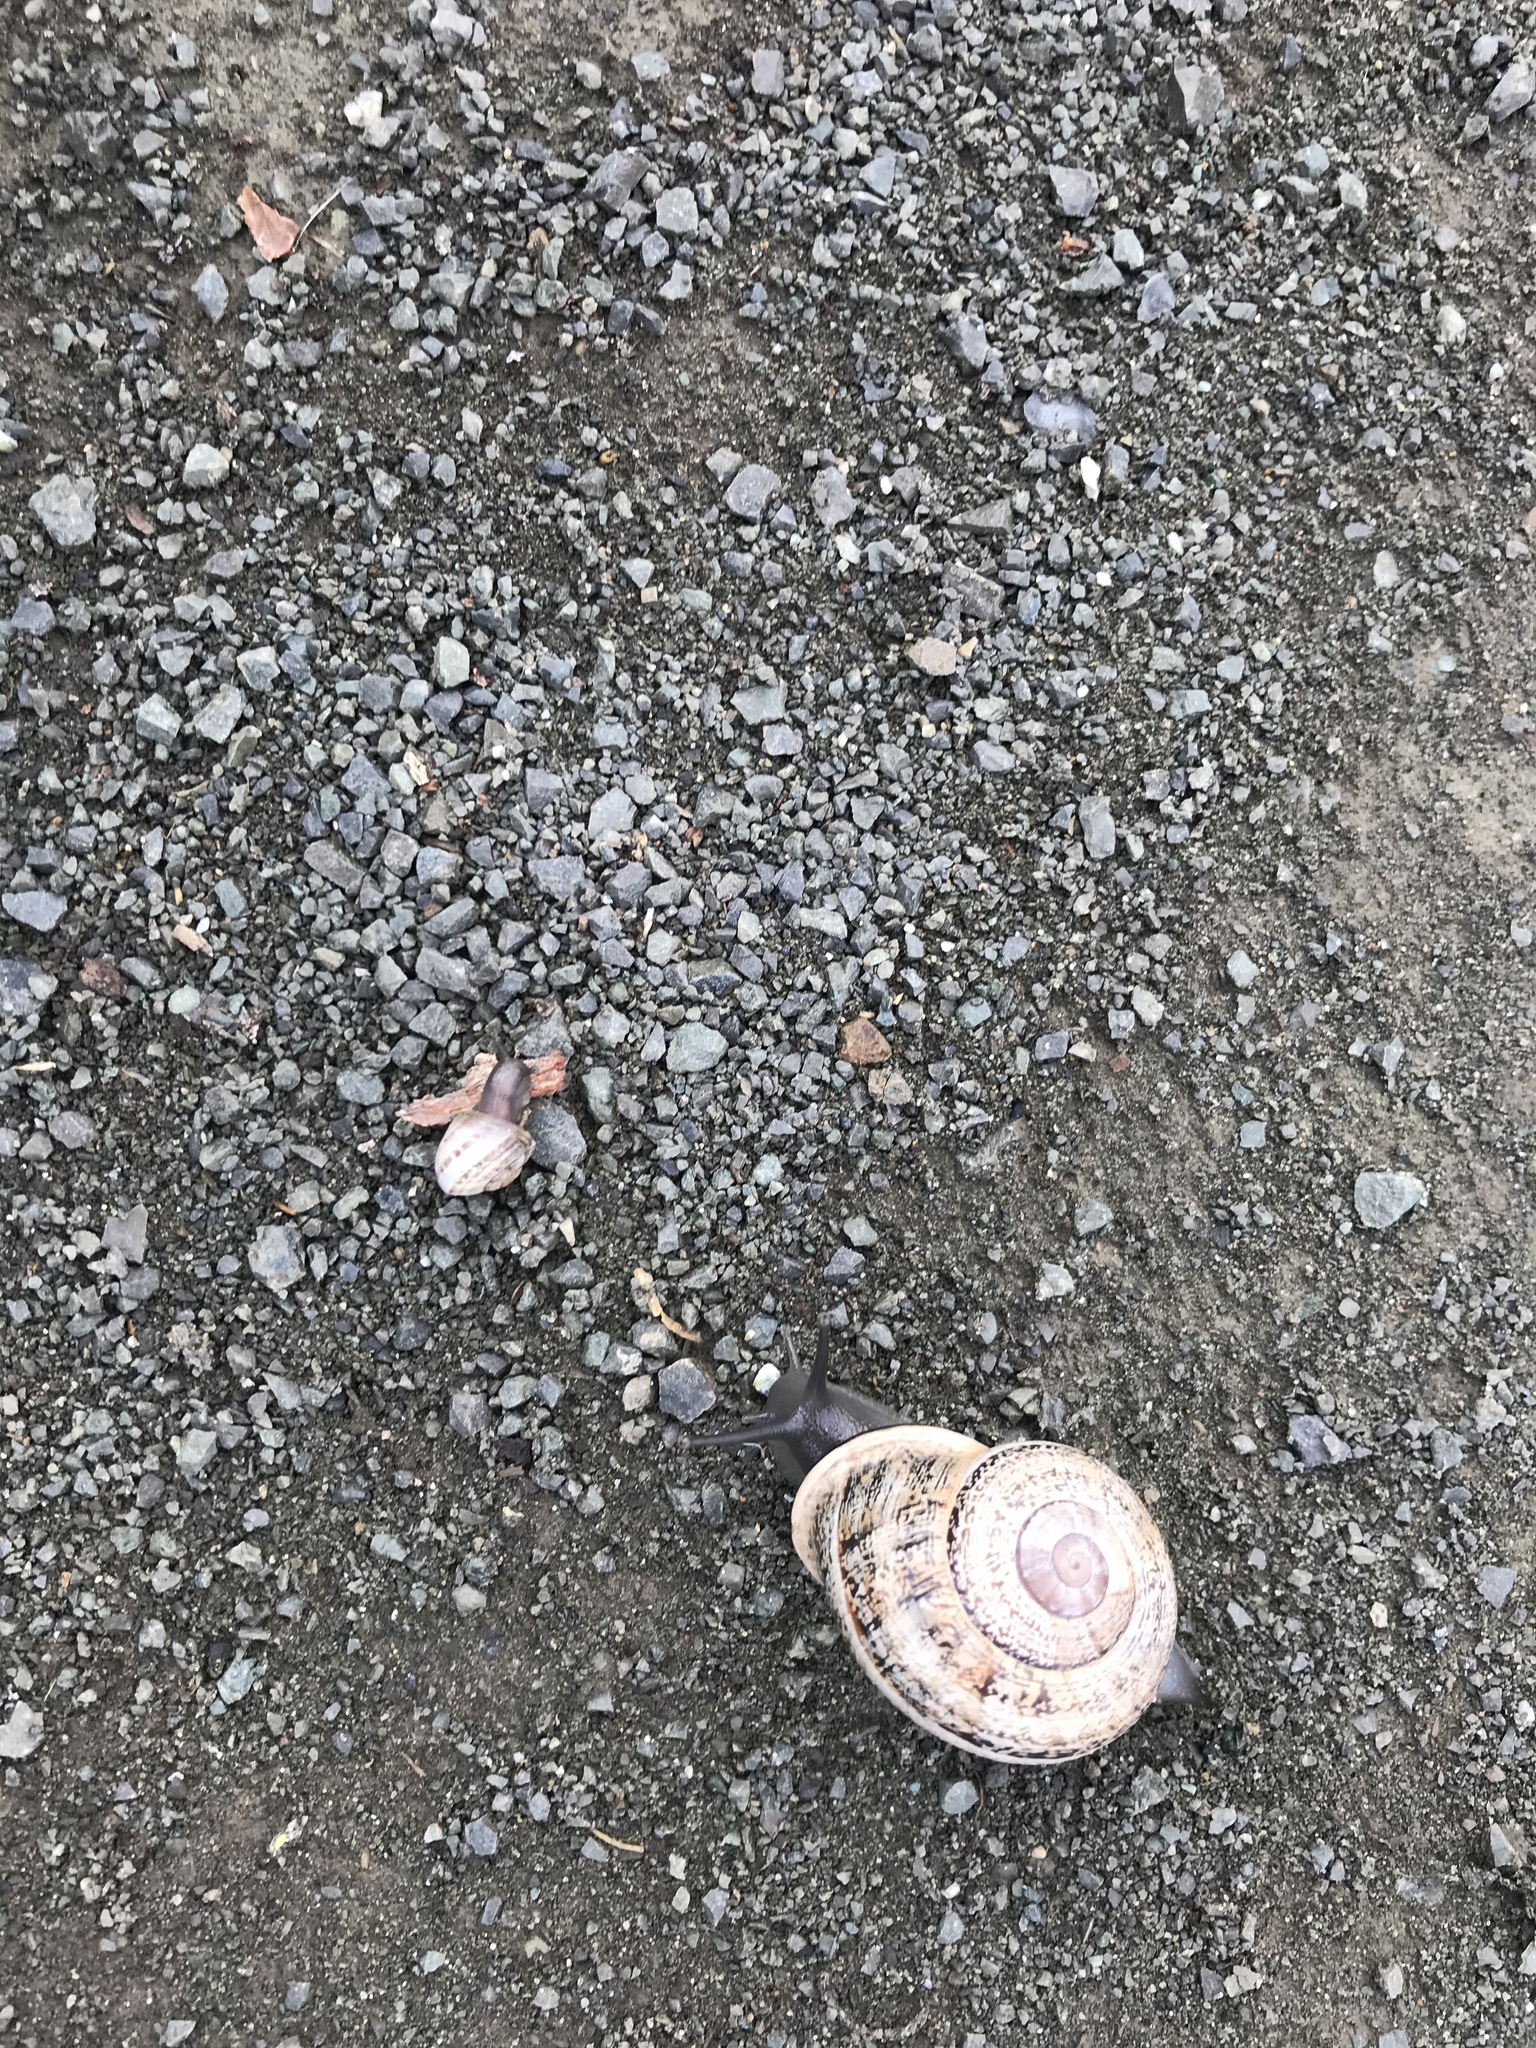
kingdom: Animalia
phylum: Mollusca
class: Gastropoda
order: Stylommatophora
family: Helicidae
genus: Otala
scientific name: Otala lactea
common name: Milk snail
